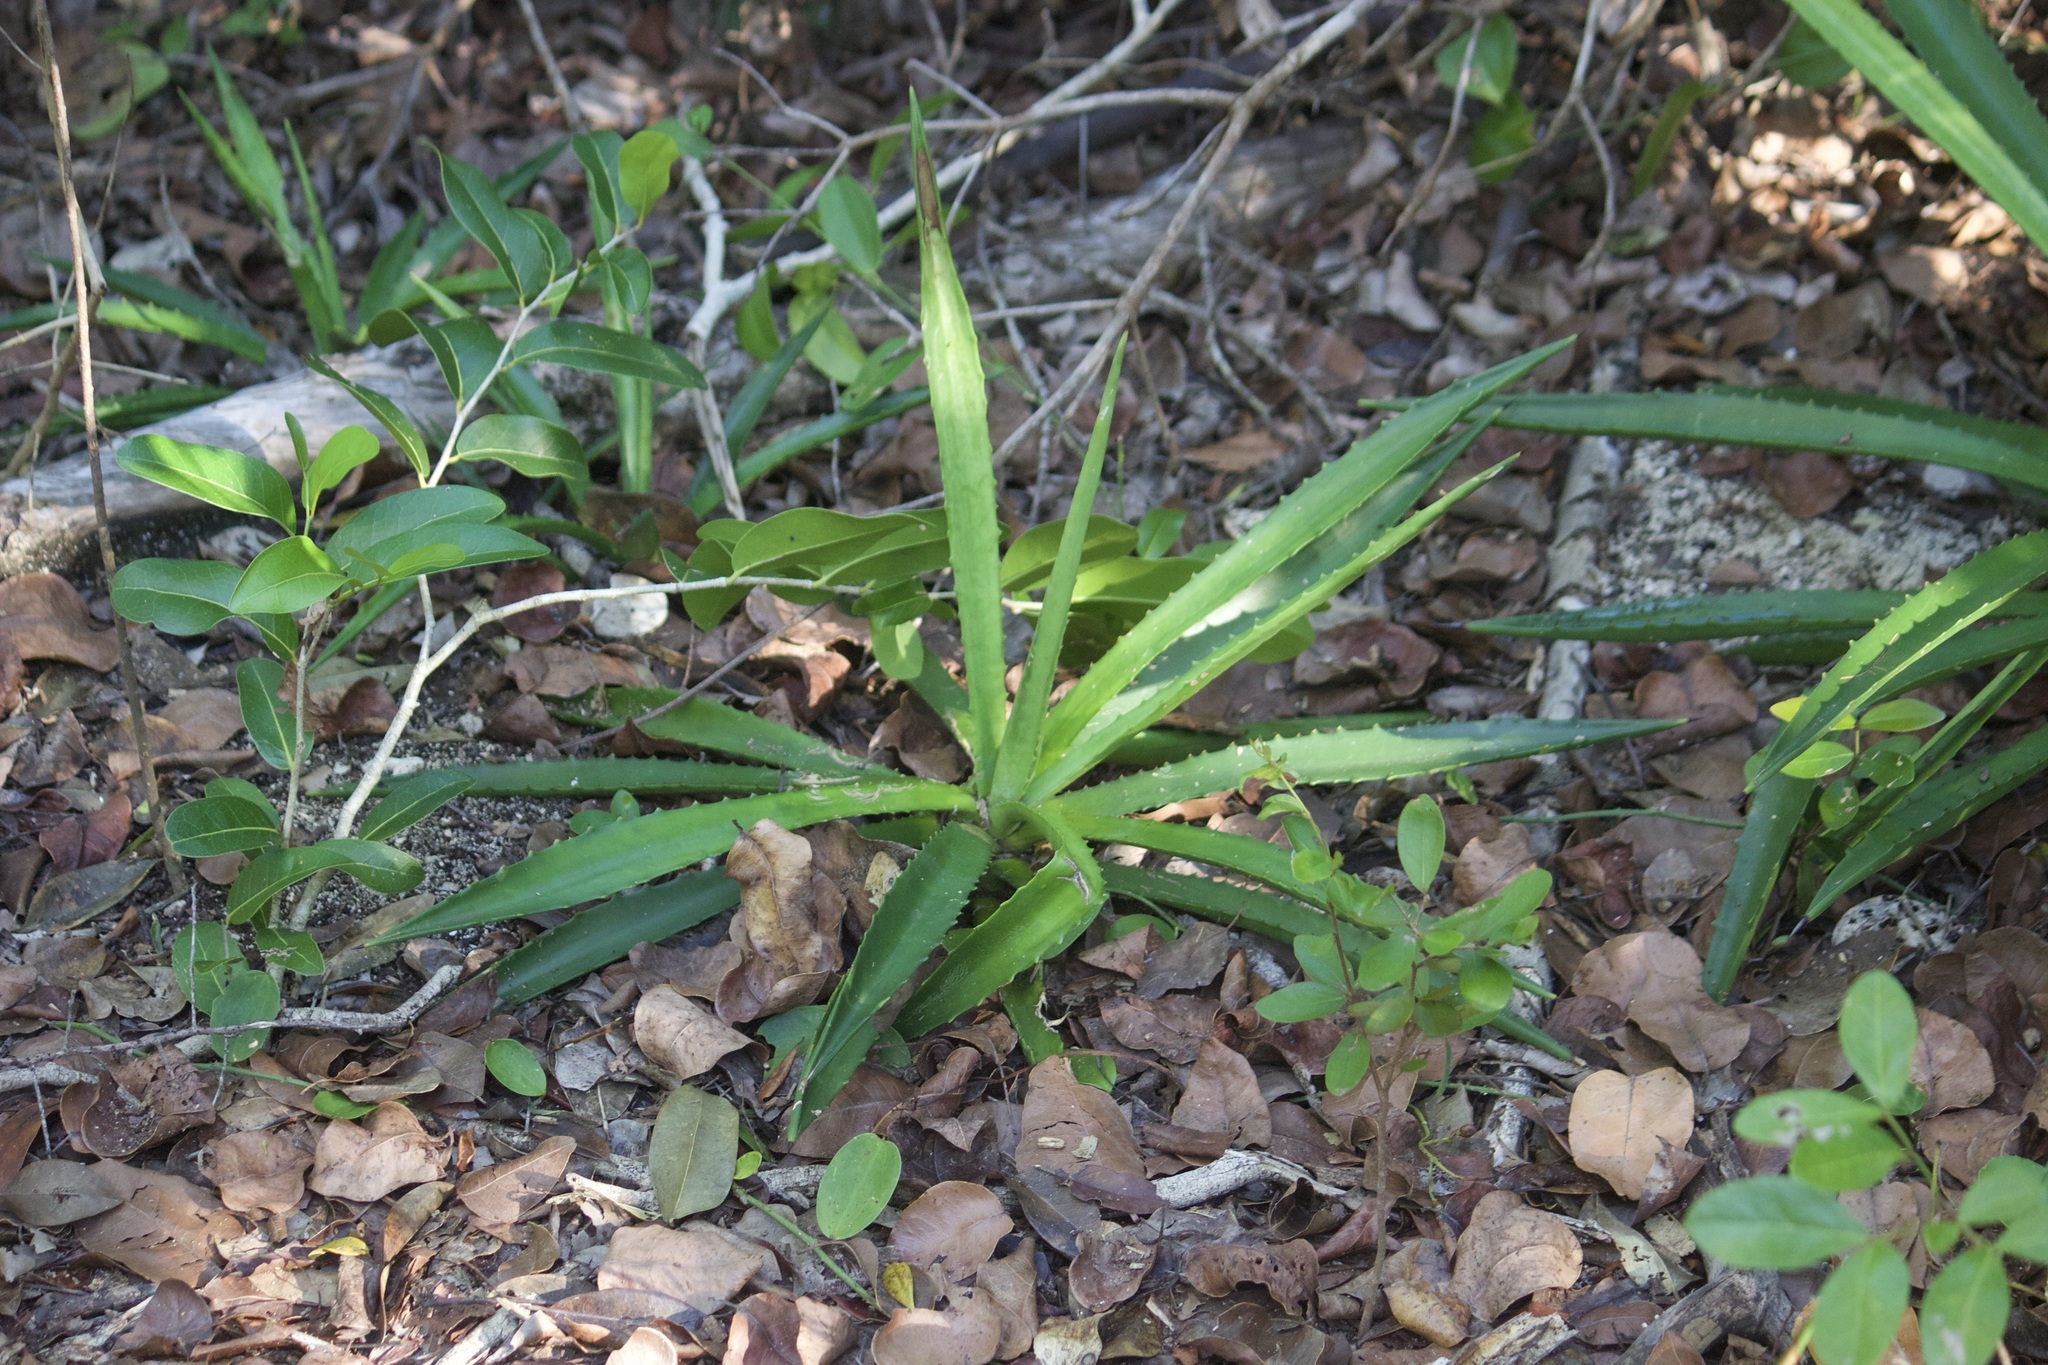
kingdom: Plantae
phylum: Tracheophyta
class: Liliopsida
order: Asparagales
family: Asparagaceae
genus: Agave
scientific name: Agave decipiens
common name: False sisal
